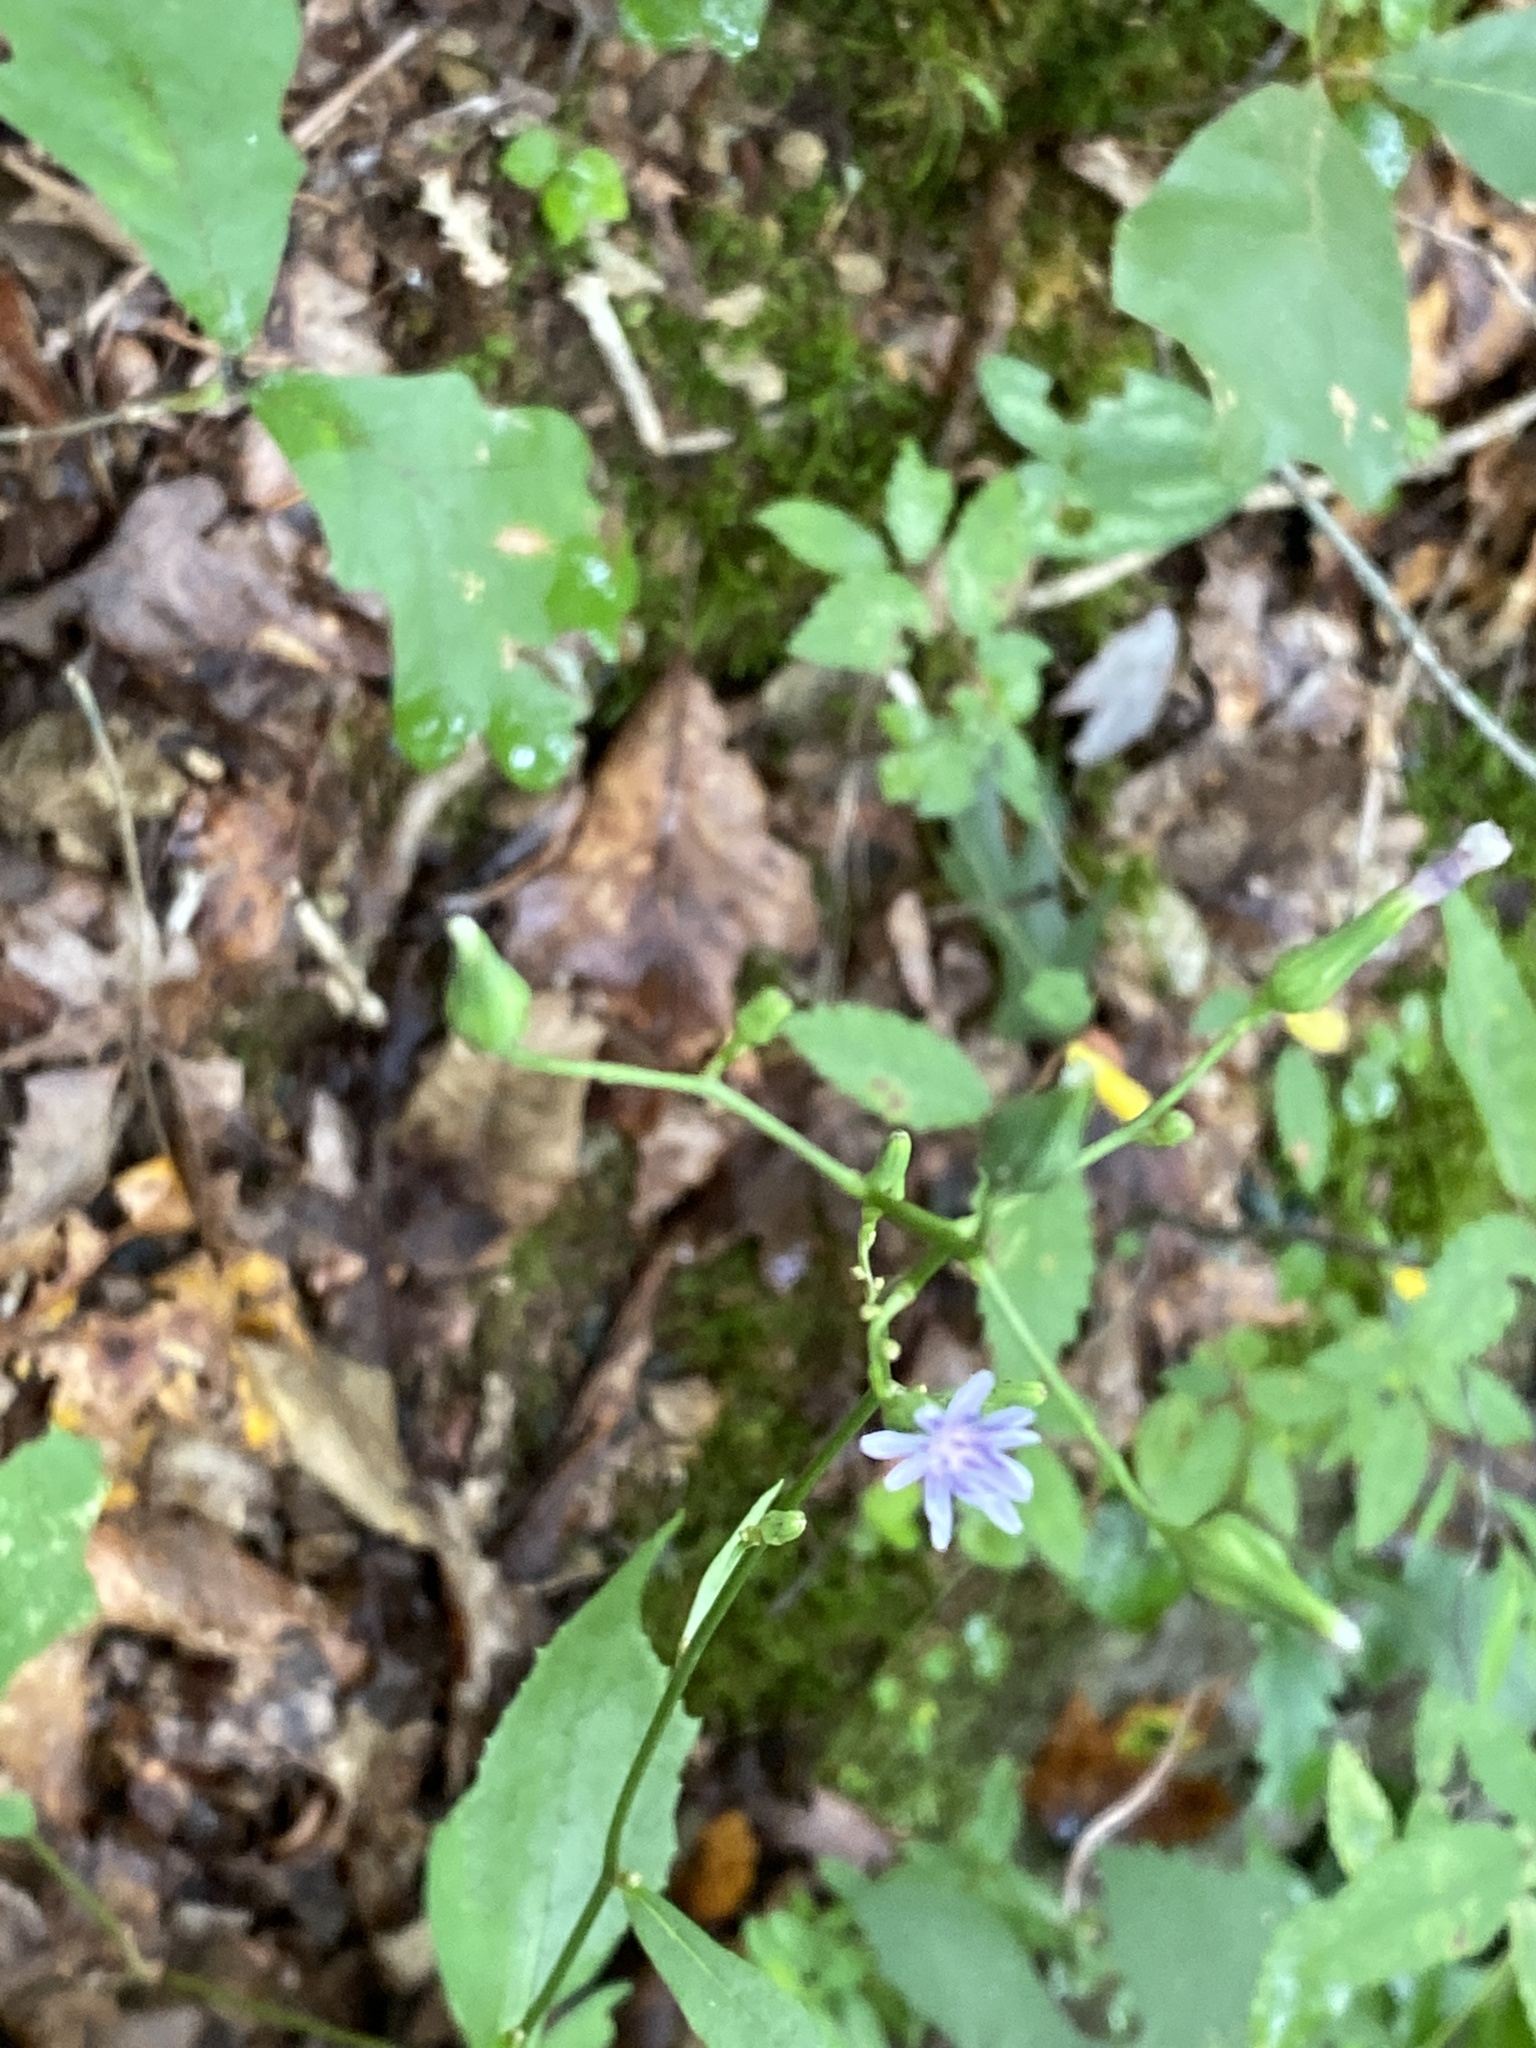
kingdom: Plantae
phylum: Tracheophyta
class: Magnoliopsida
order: Asterales
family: Asteraceae
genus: Lactuca
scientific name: Lactuca floridana
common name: Woodland lettuce
